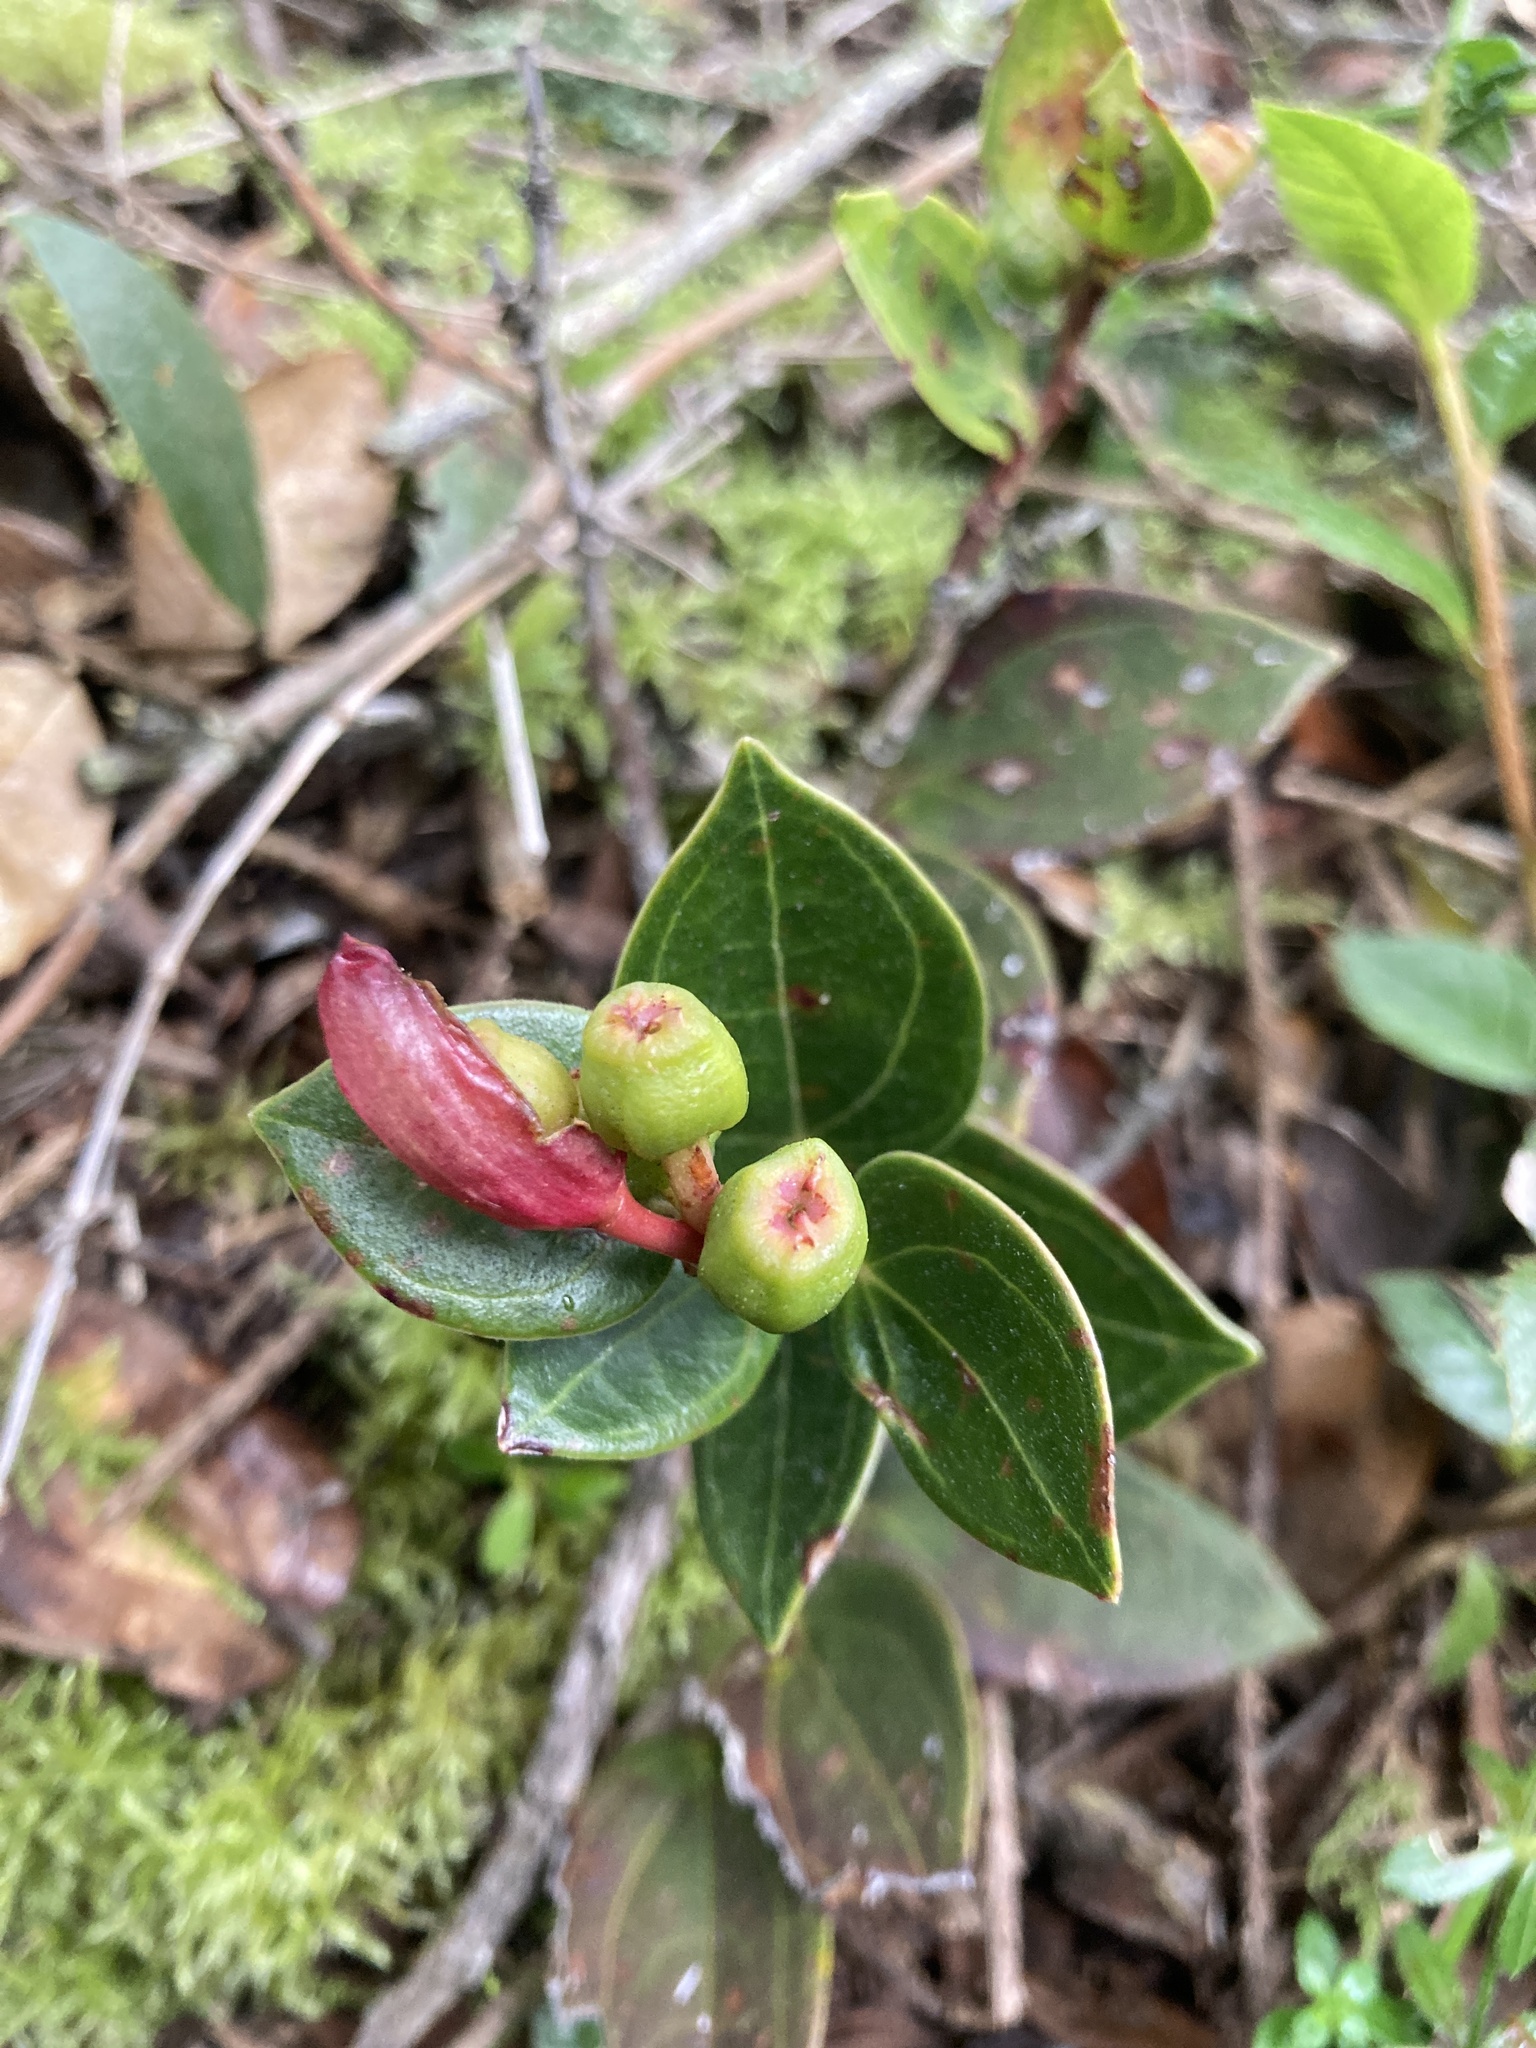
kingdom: Plantae
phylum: Tracheophyta
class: Magnoliopsida
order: Ericales
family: Ericaceae
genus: Cavendishia
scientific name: Cavendishia bracteata
